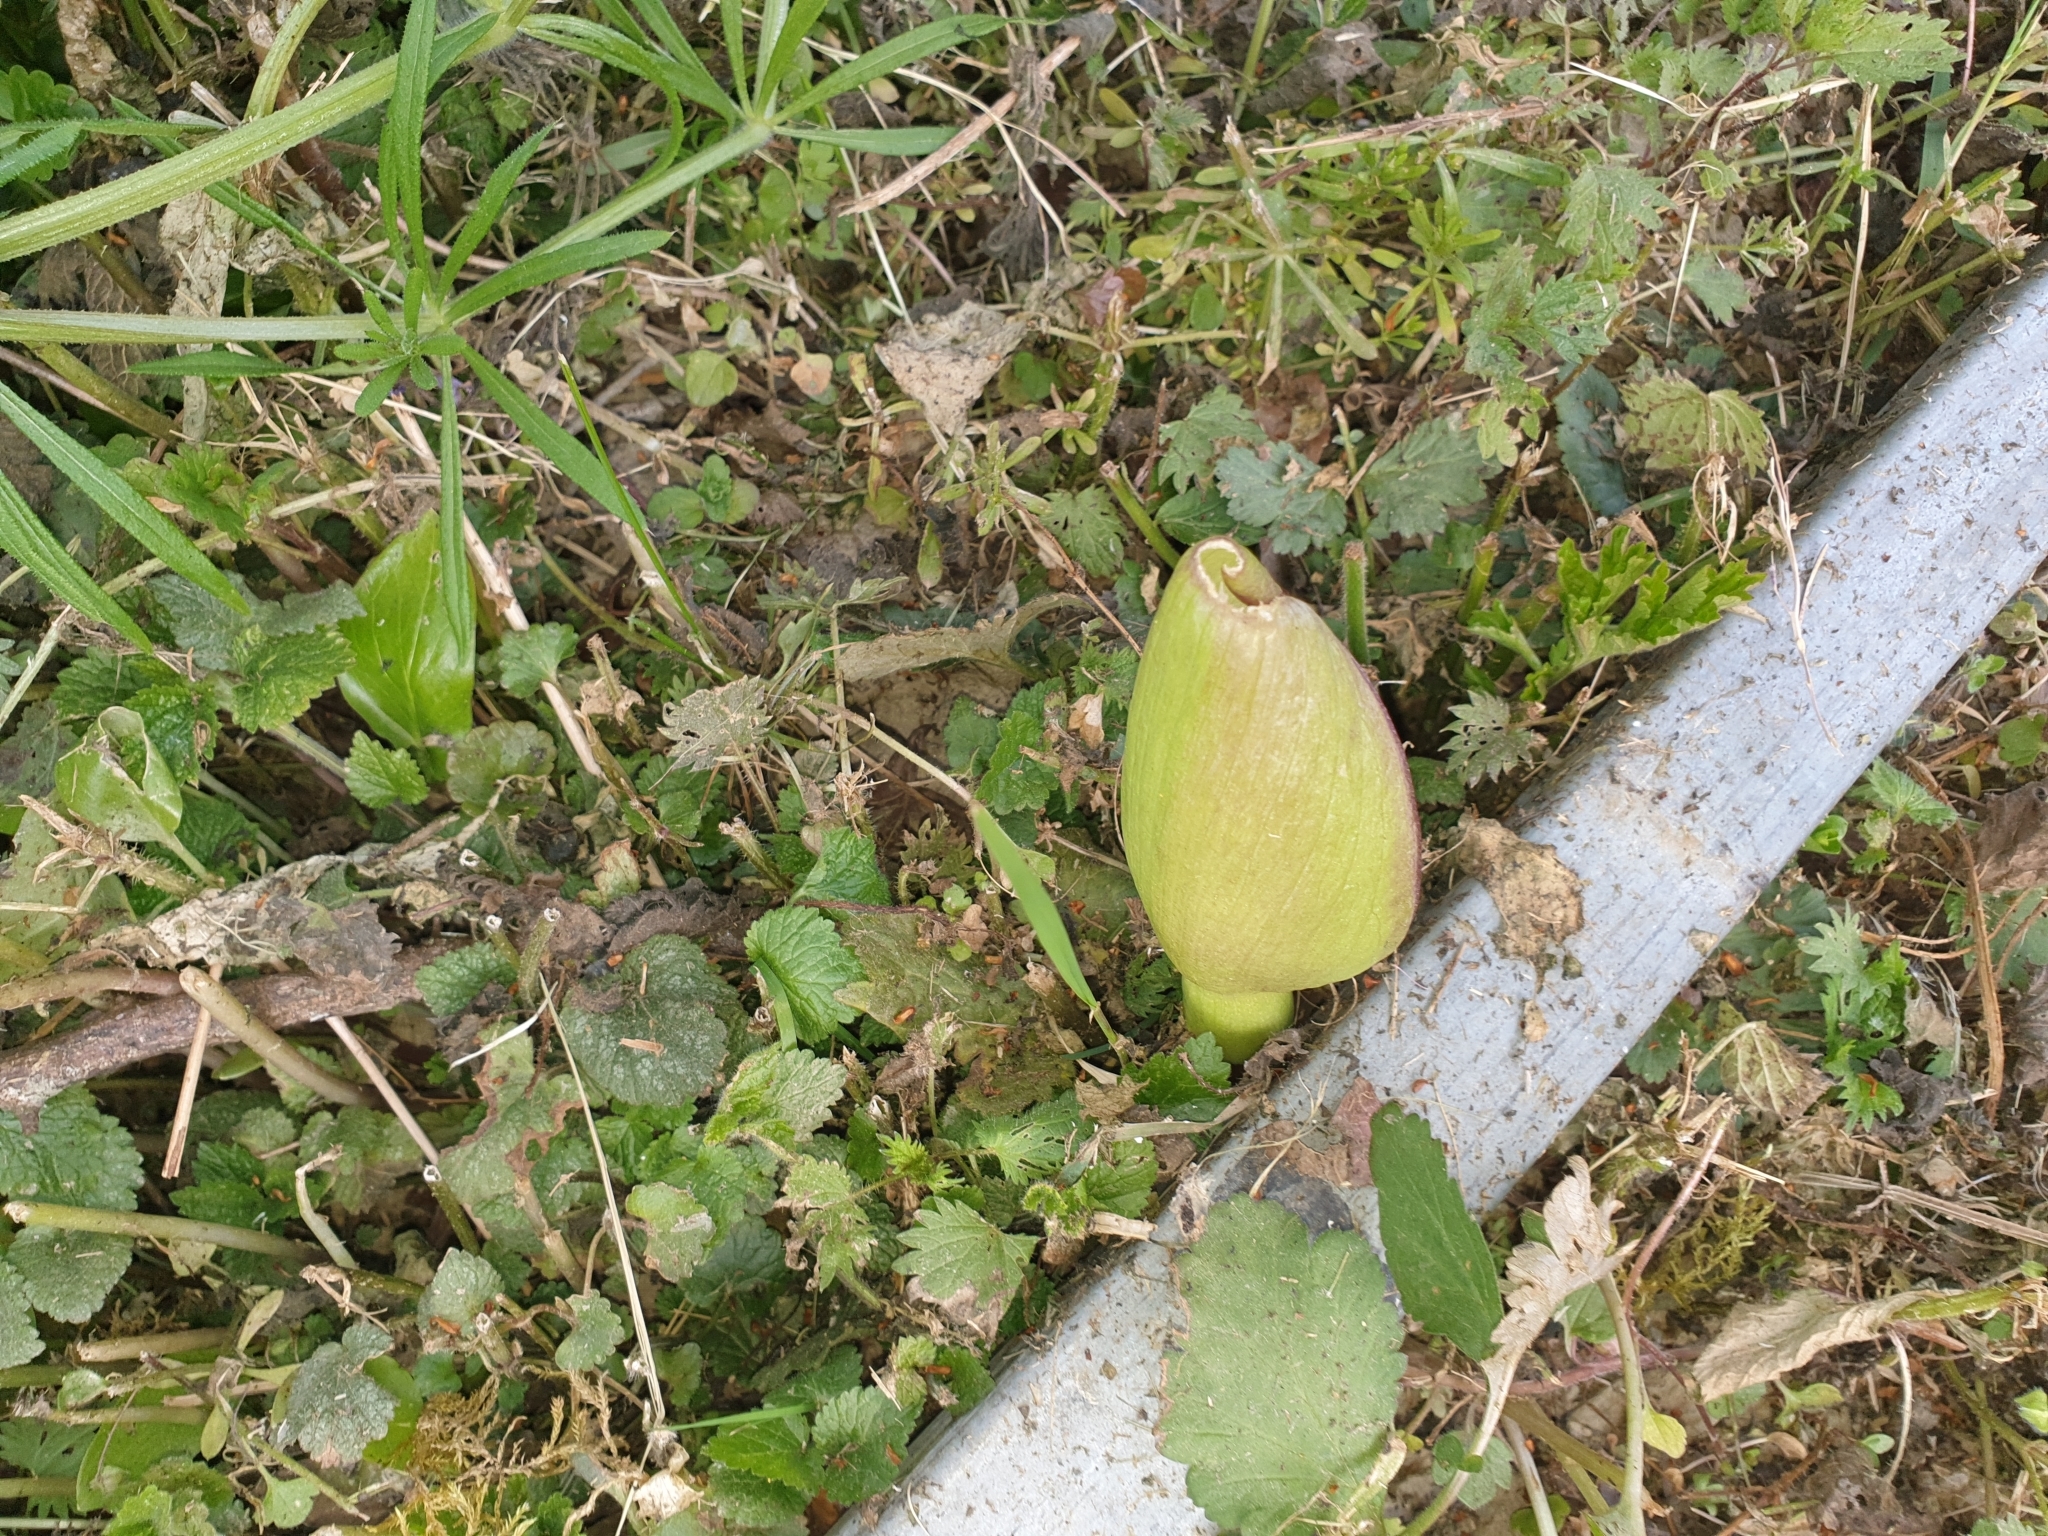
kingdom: Plantae
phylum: Tracheophyta
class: Liliopsida
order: Alismatales
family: Araceae
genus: Arum
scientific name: Arum maculatum
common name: Lords-and-ladies
